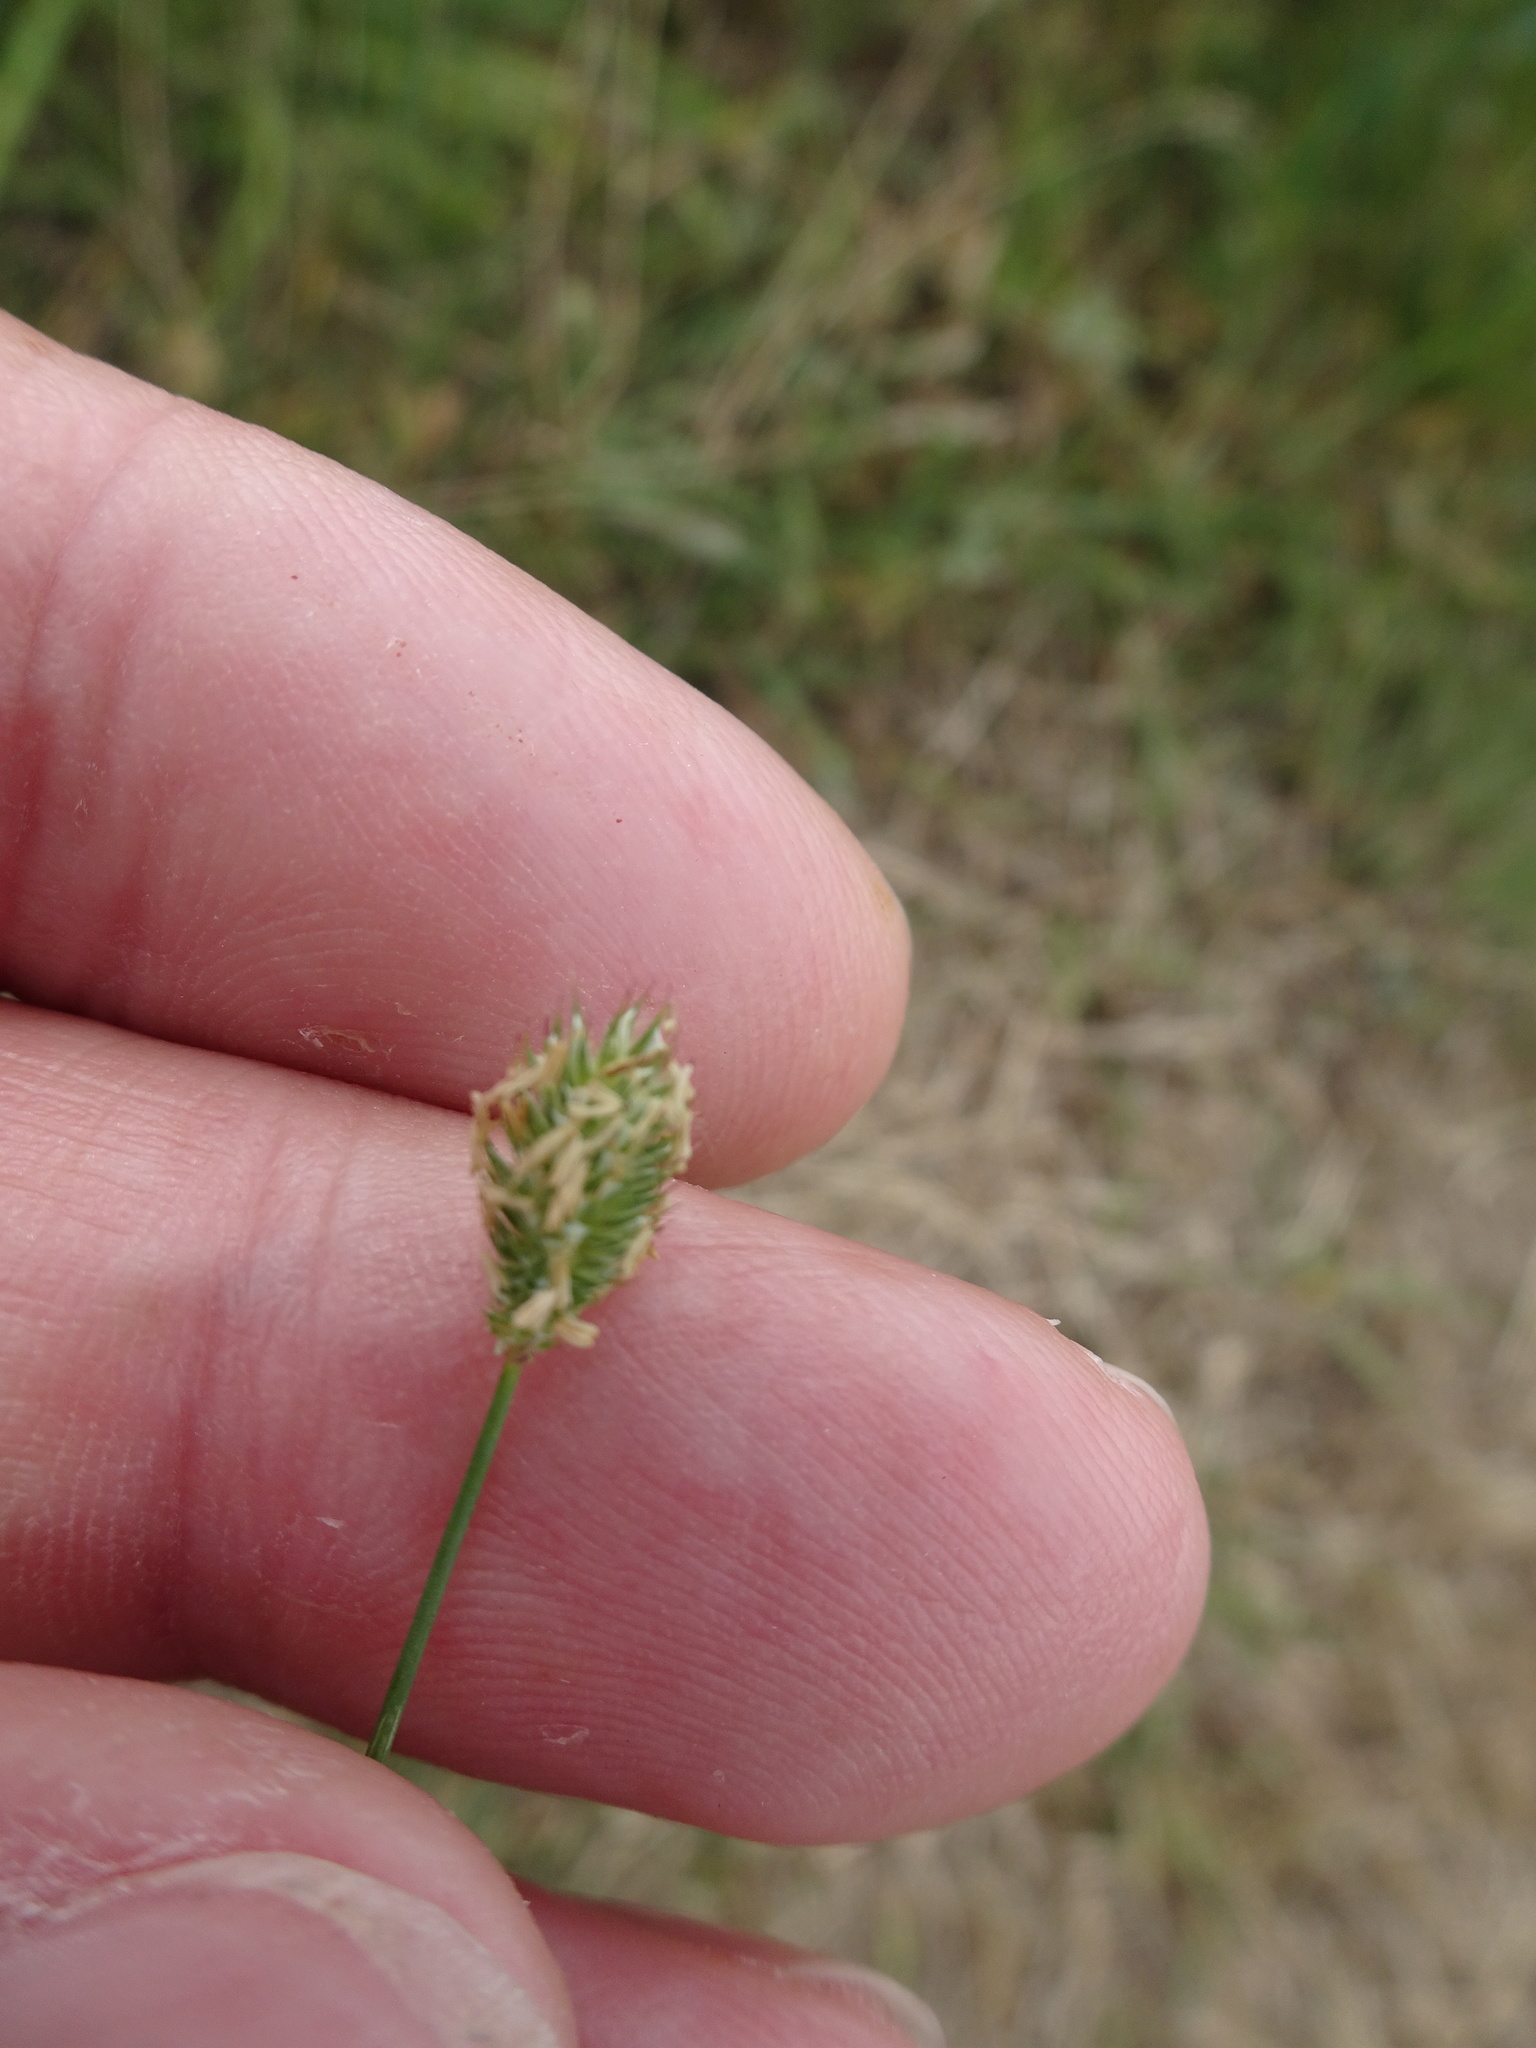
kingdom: Plantae
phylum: Tracheophyta
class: Liliopsida
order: Poales
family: Poaceae
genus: Phleum
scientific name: Phleum pratense
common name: Timothy grass
